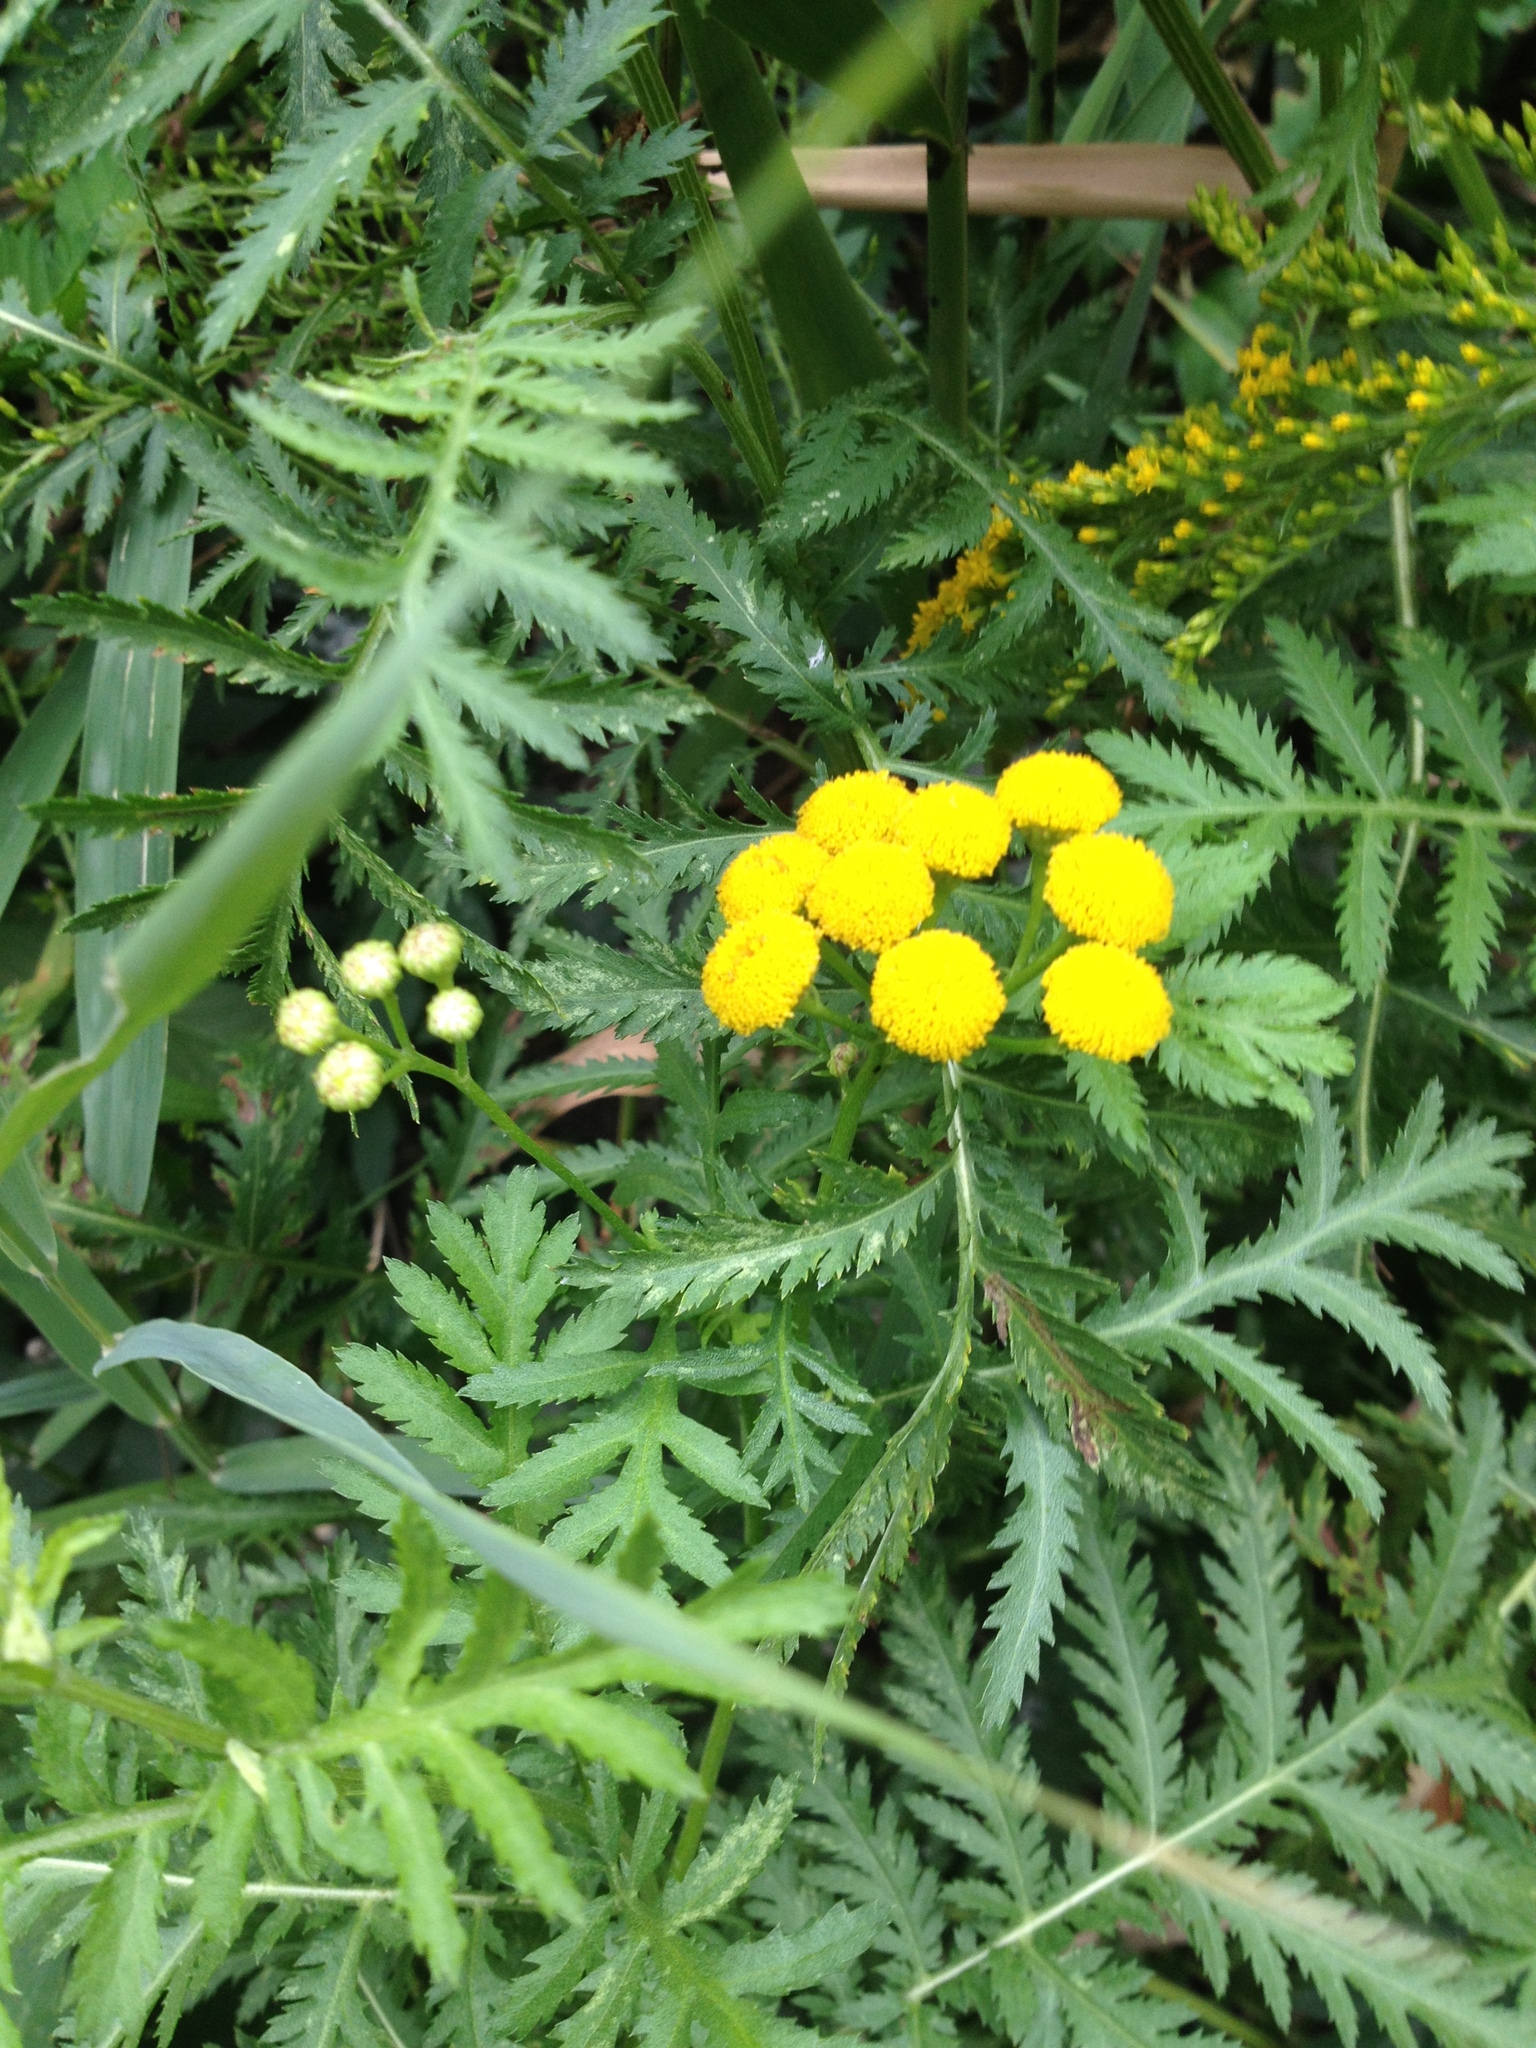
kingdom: Plantae
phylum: Tracheophyta
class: Magnoliopsida
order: Asterales
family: Asteraceae
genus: Tanacetum
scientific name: Tanacetum vulgare
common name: Common tansy
